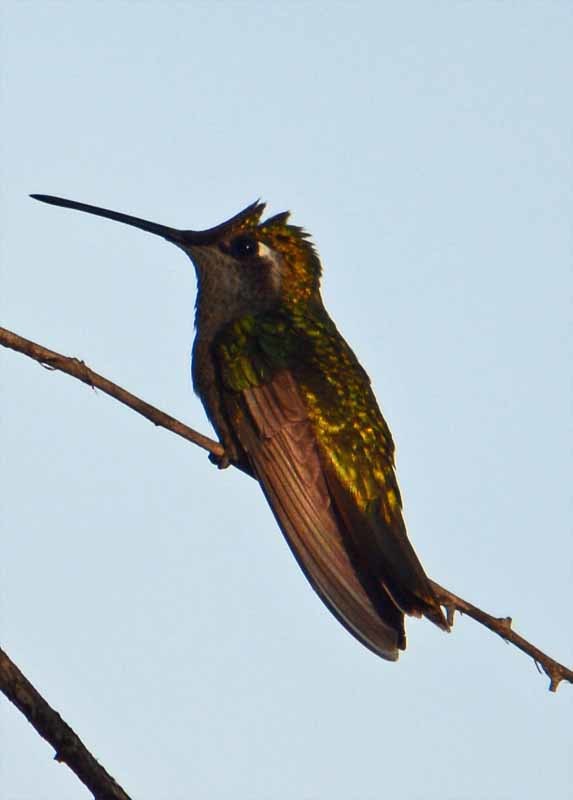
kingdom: Animalia
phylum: Chordata
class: Aves
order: Apodiformes
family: Trochilidae
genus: Eugenes
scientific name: Eugenes fulgens
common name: Magnificent hummingbird
